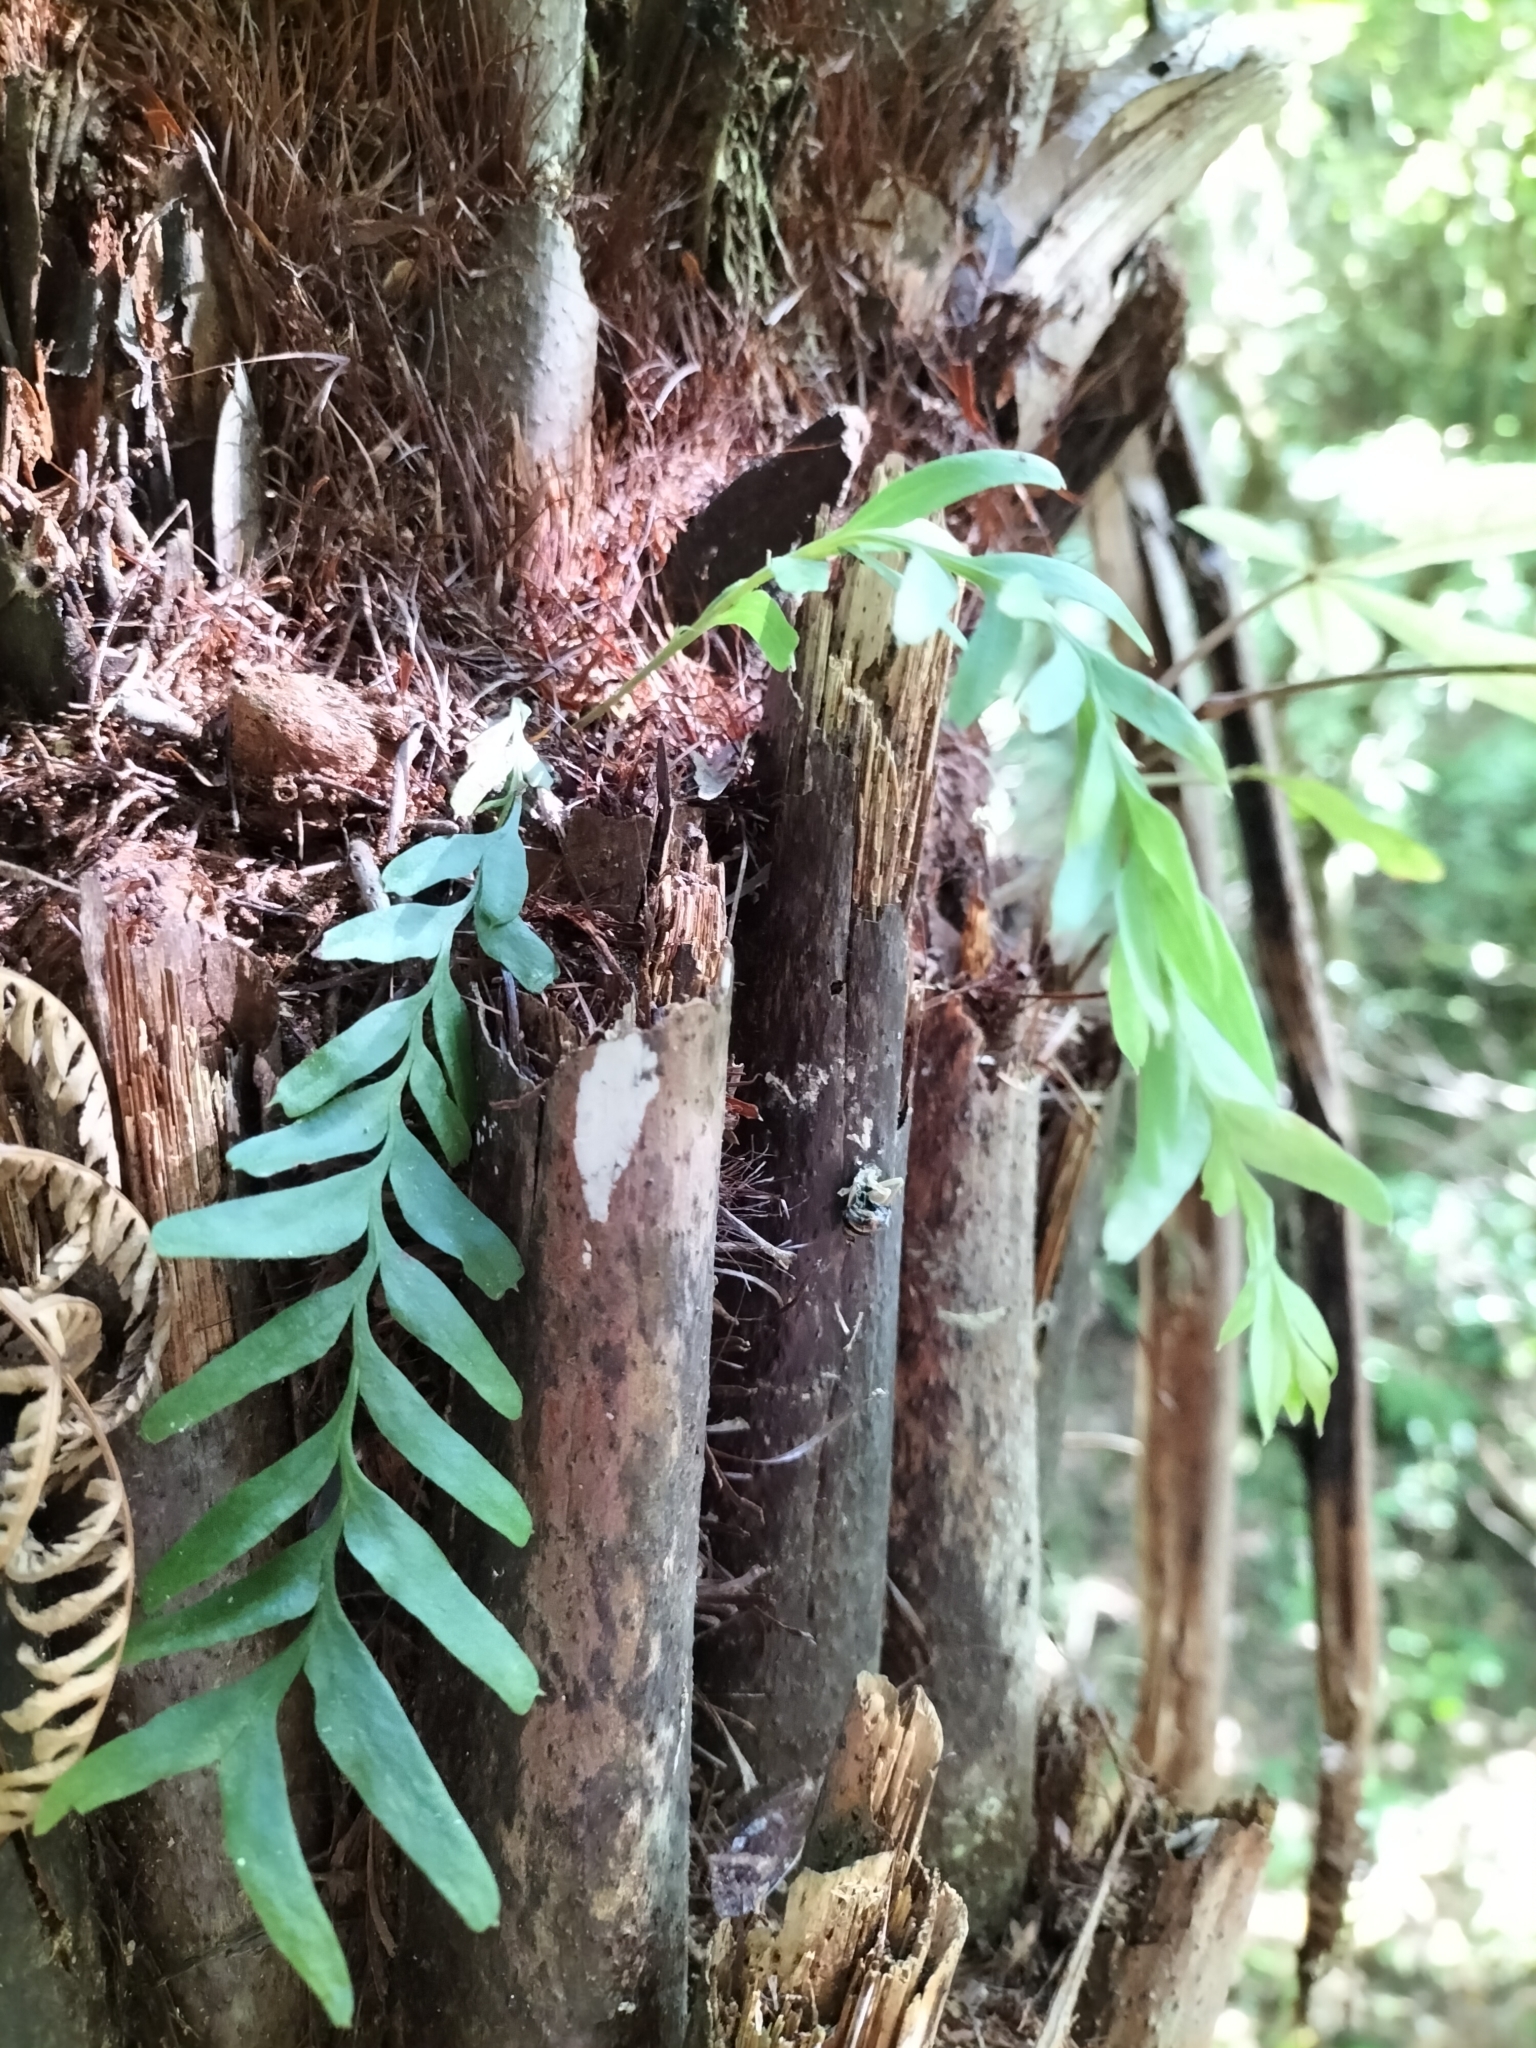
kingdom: Plantae
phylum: Tracheophyta
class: Polypodiopsida
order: Psilotales
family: Psilotaceae
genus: Tmesipteris
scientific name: Tmesipteris elongata
